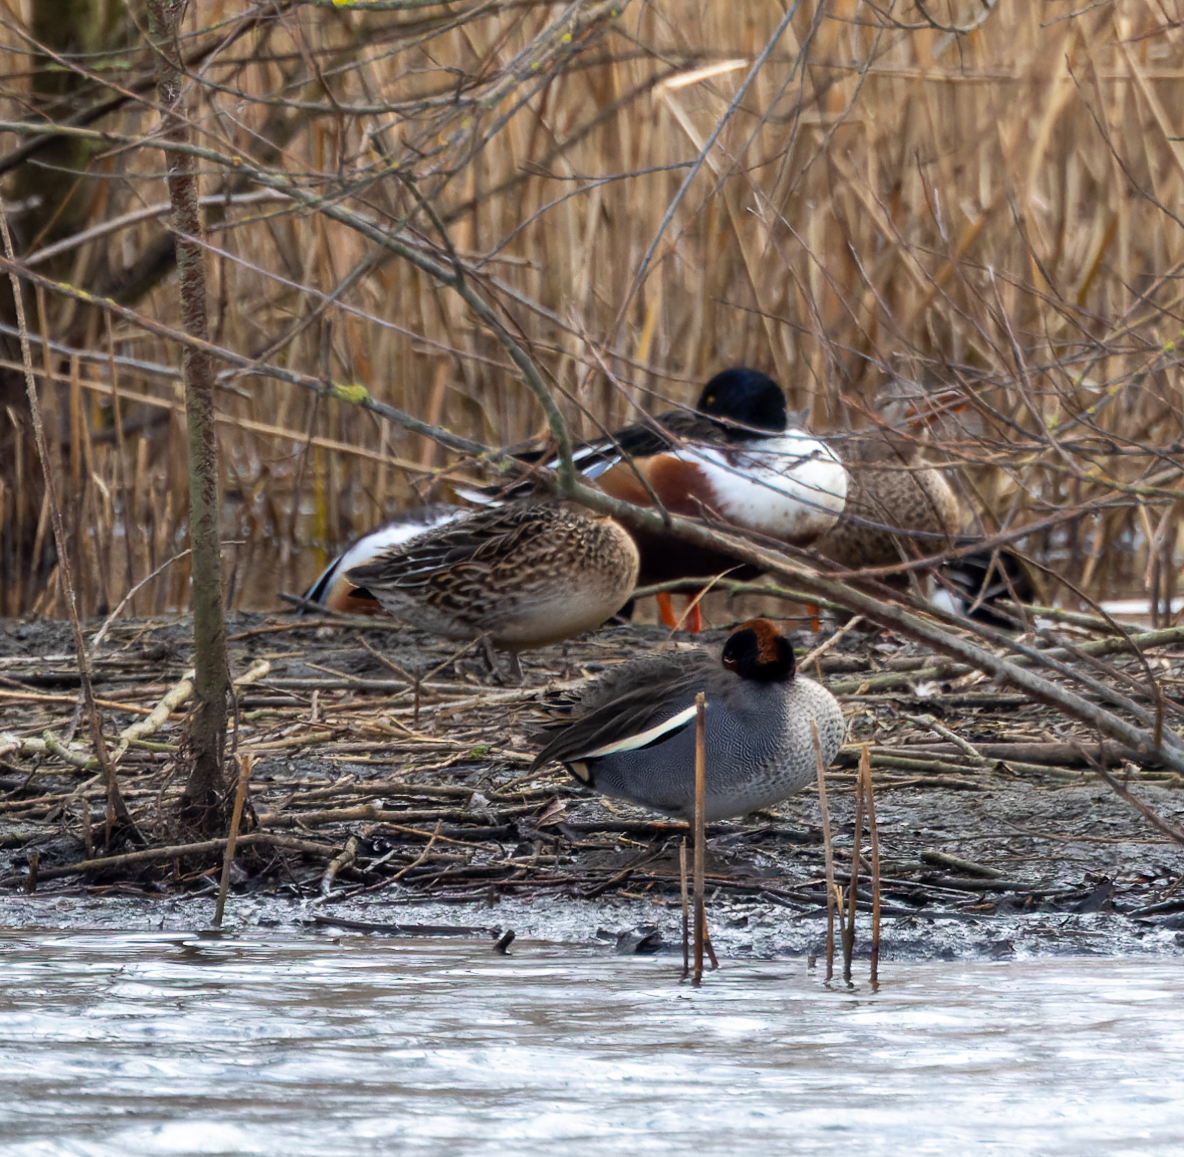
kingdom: Animalia
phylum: Chordata
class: Aves
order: Anseriformes
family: Anatidae
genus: Spatula
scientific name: Spatula clypeata
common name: Northern shoveler
